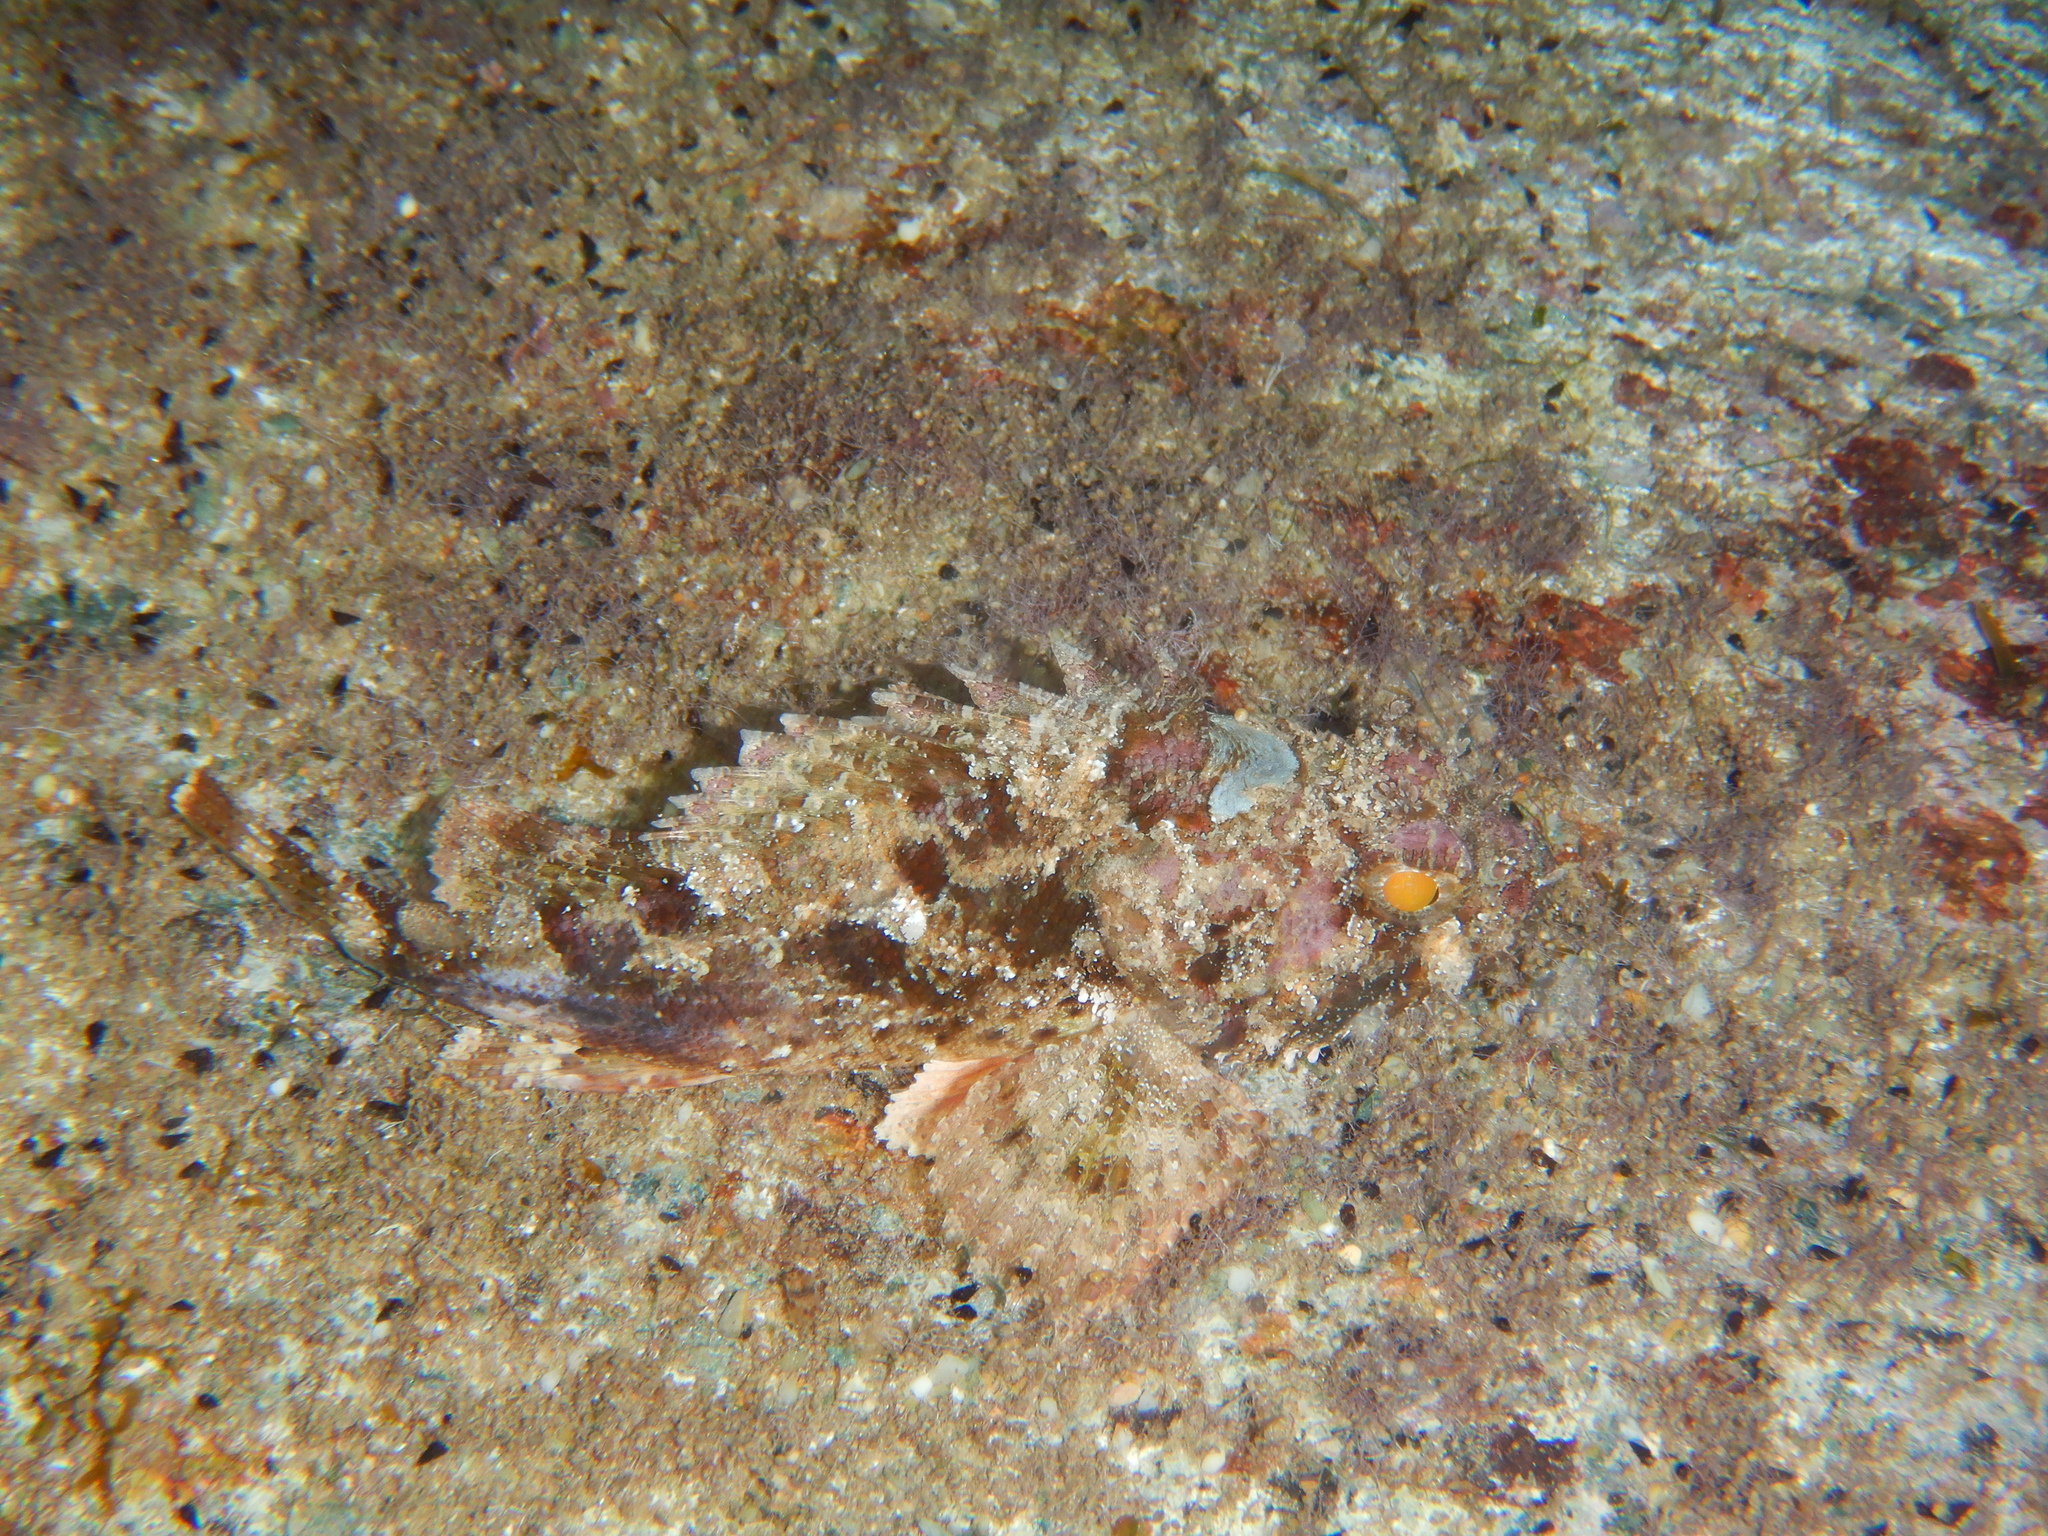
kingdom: Animalia
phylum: Chordata
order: Scorpaeniformes
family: Scorpaenidae
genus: Scorpaena
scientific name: Scorpaena porcus
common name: Black scorpionfish
